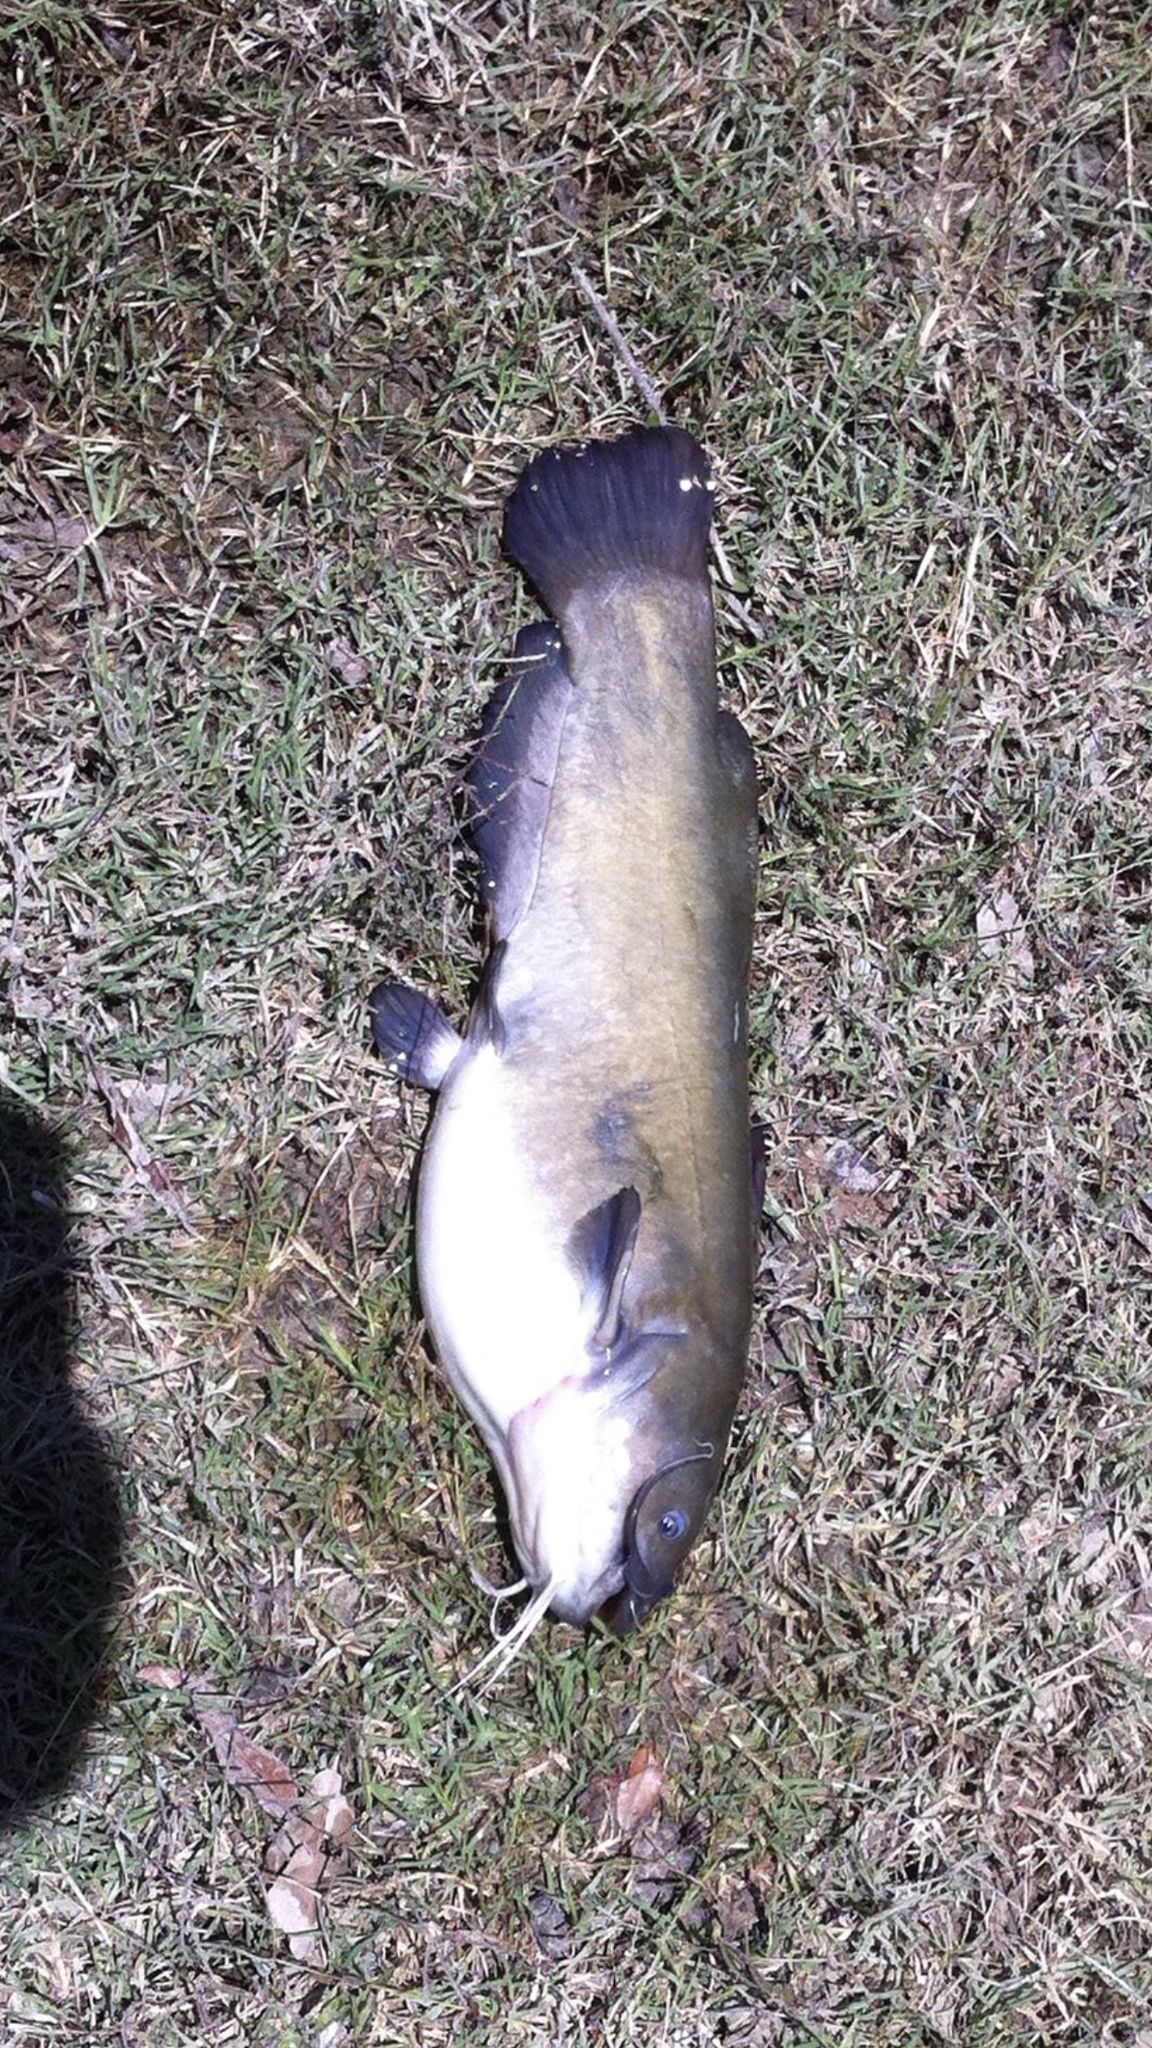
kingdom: Animalia
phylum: Chordata
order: Siluriformes
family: Ictaluridae
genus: Ameiurus
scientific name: Ameiurus natalis
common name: Yellow bullhead
